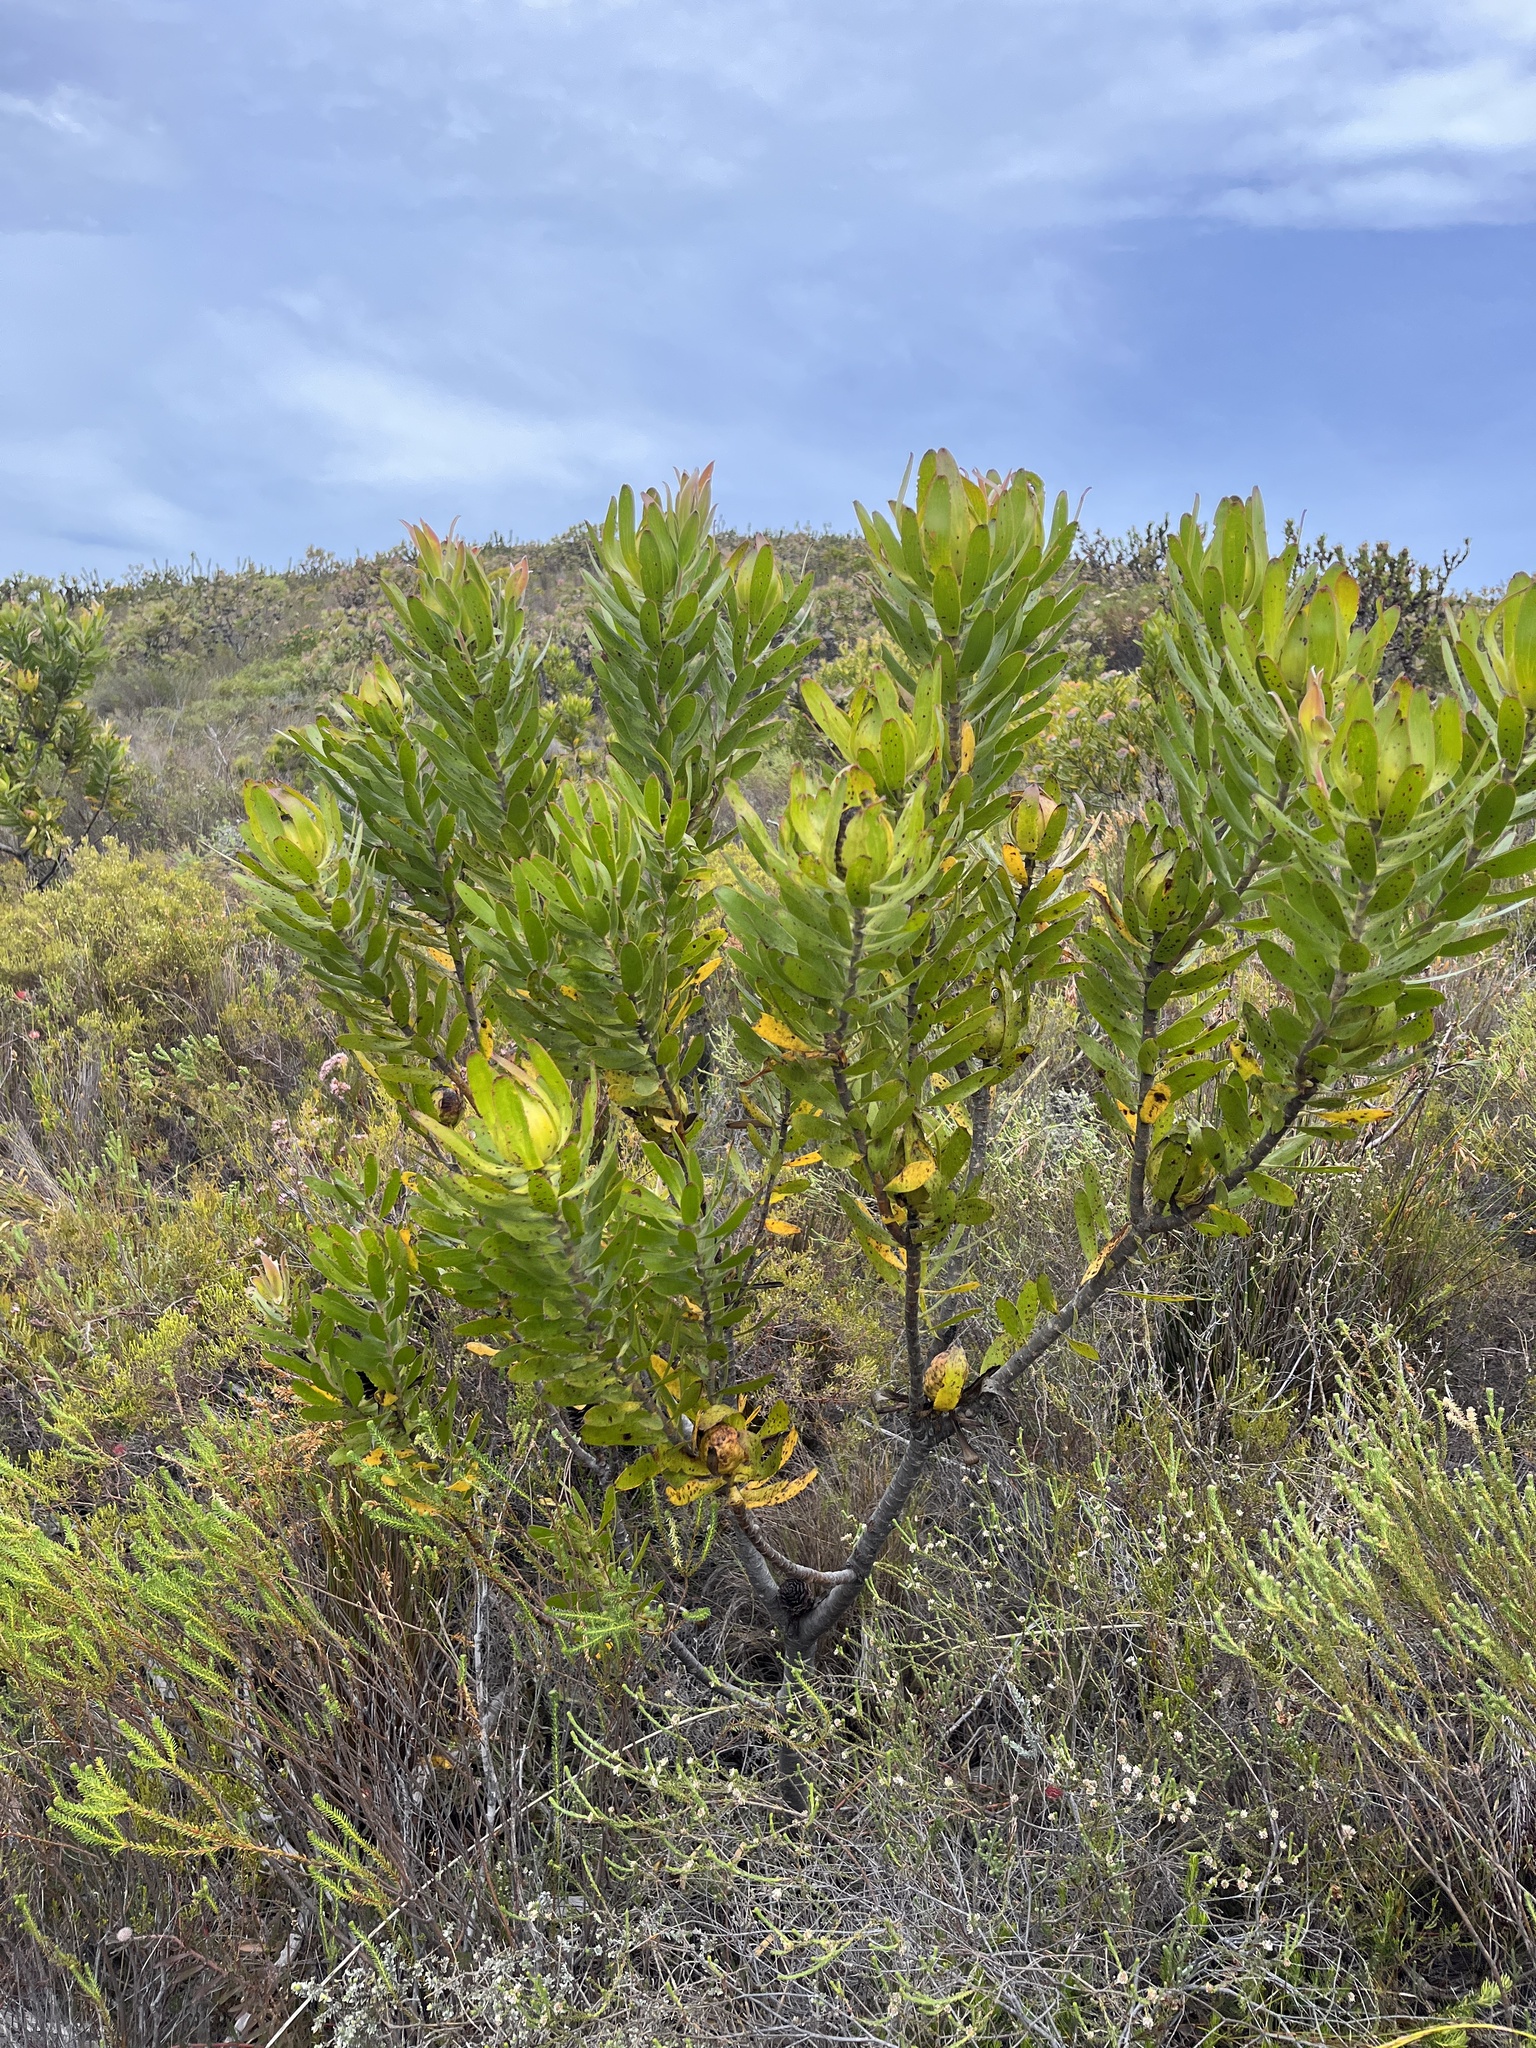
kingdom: Plantae
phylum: Tracheophyta
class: Magnoliopsida
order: Proteales
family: Proteaceae
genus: Leucadendron
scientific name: Leucadendron laureolum
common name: Golden sunshinebush
